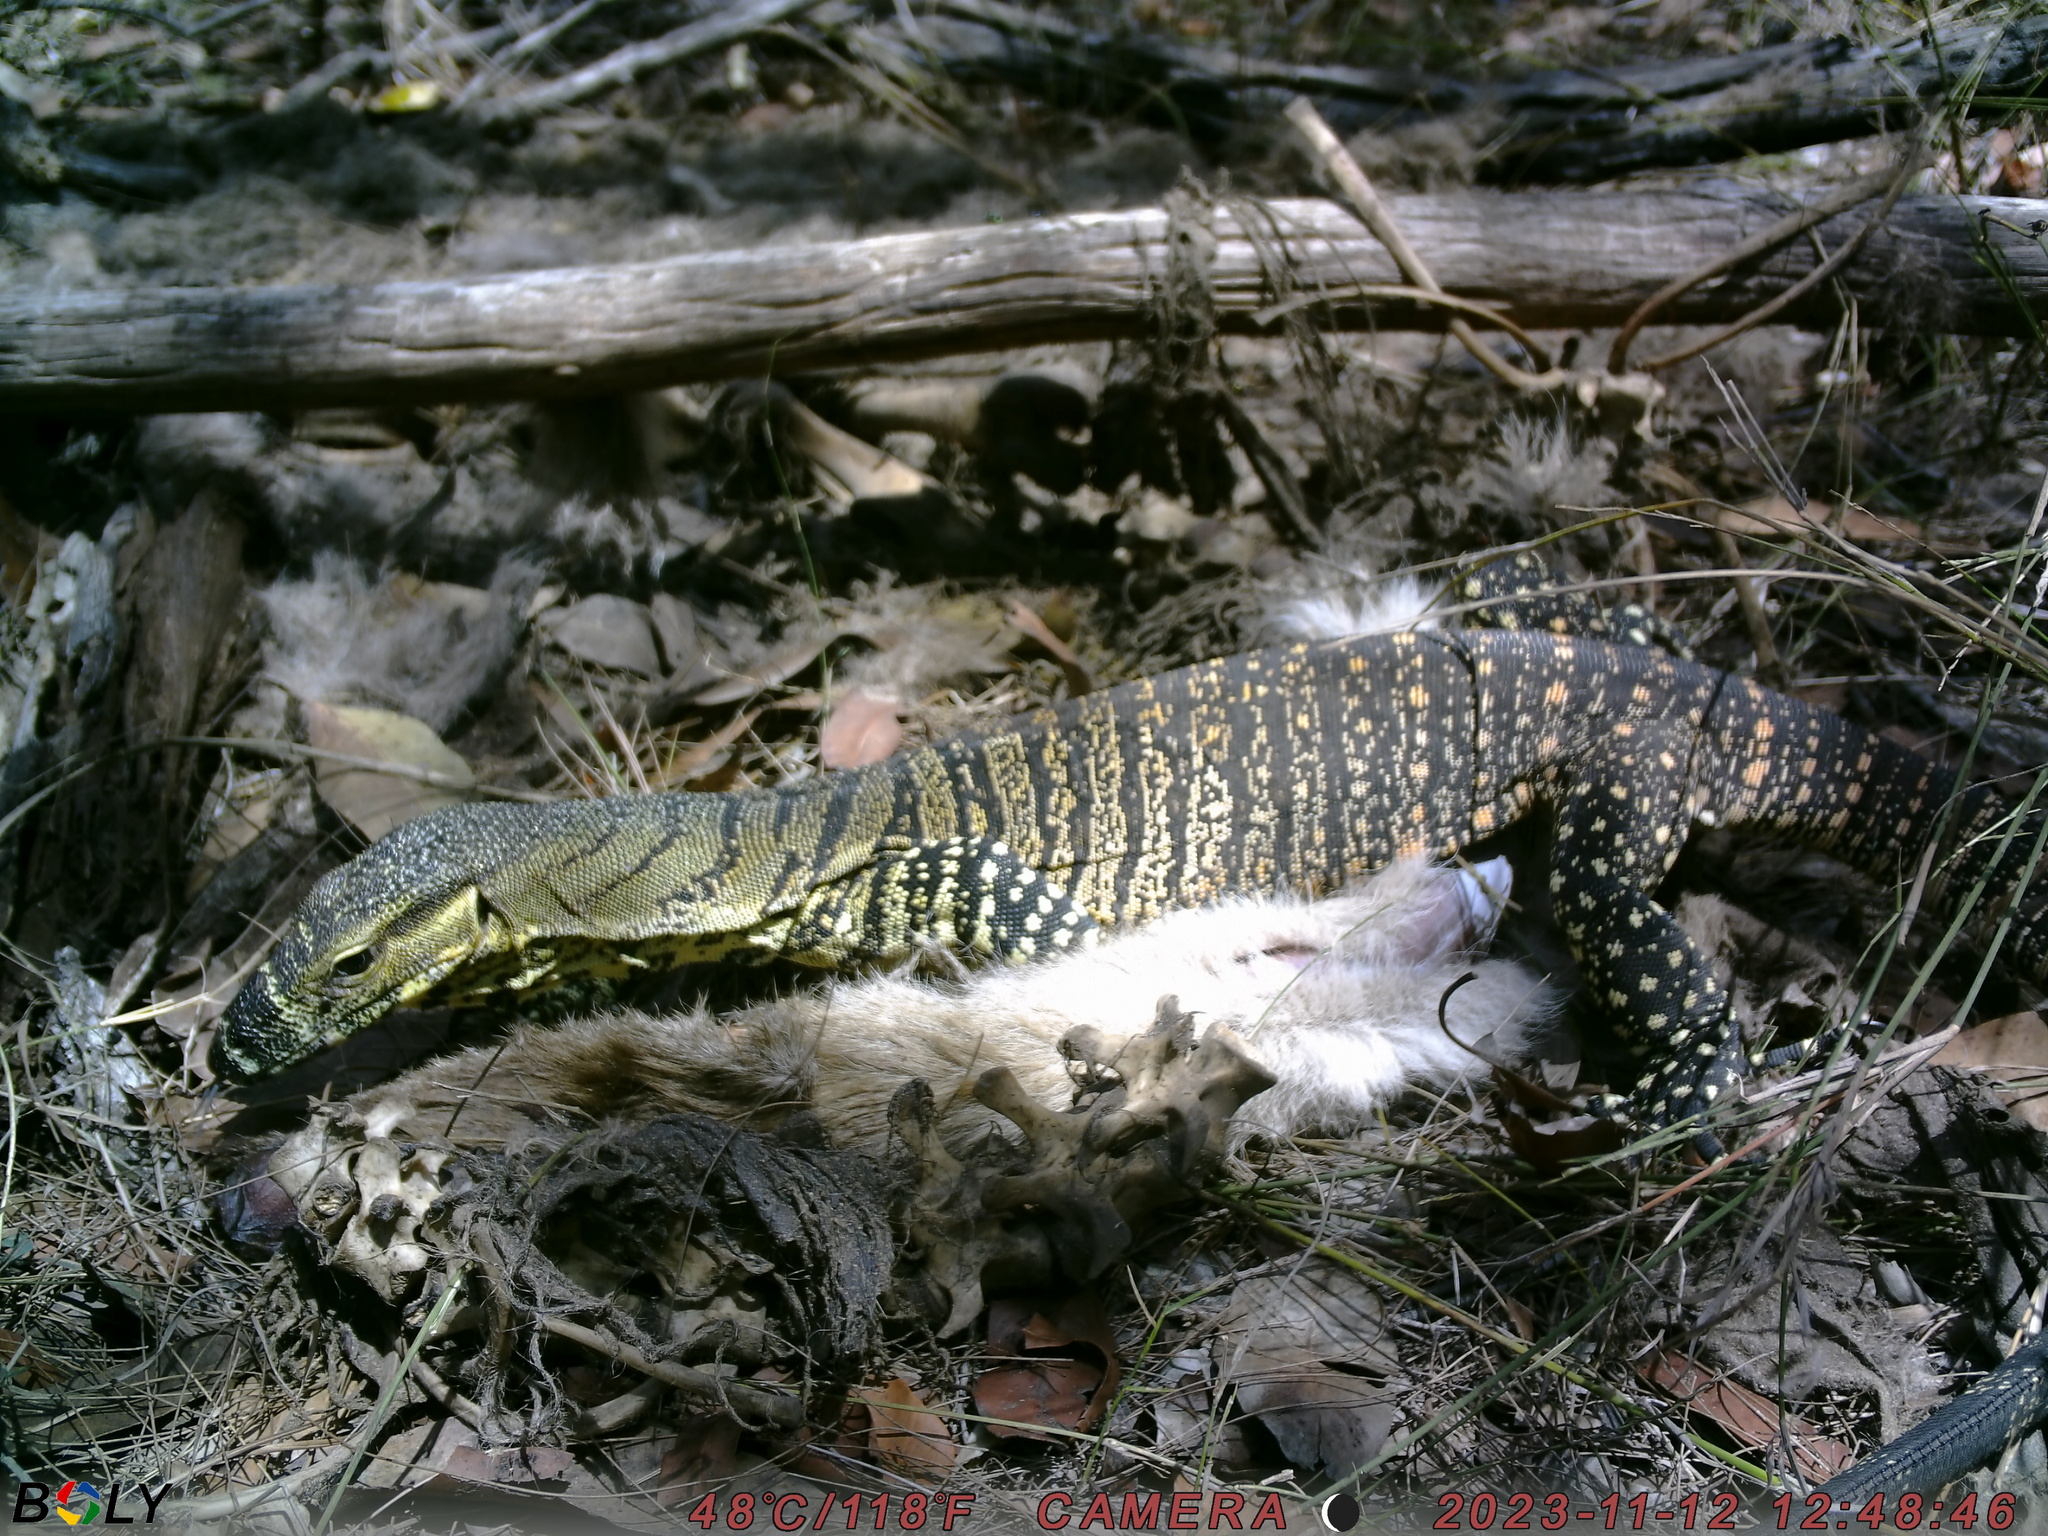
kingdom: Animalia
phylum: Chordata
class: Squamata
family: Varanidae
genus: Varanus
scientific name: Varanus varius
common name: Lace monitor
